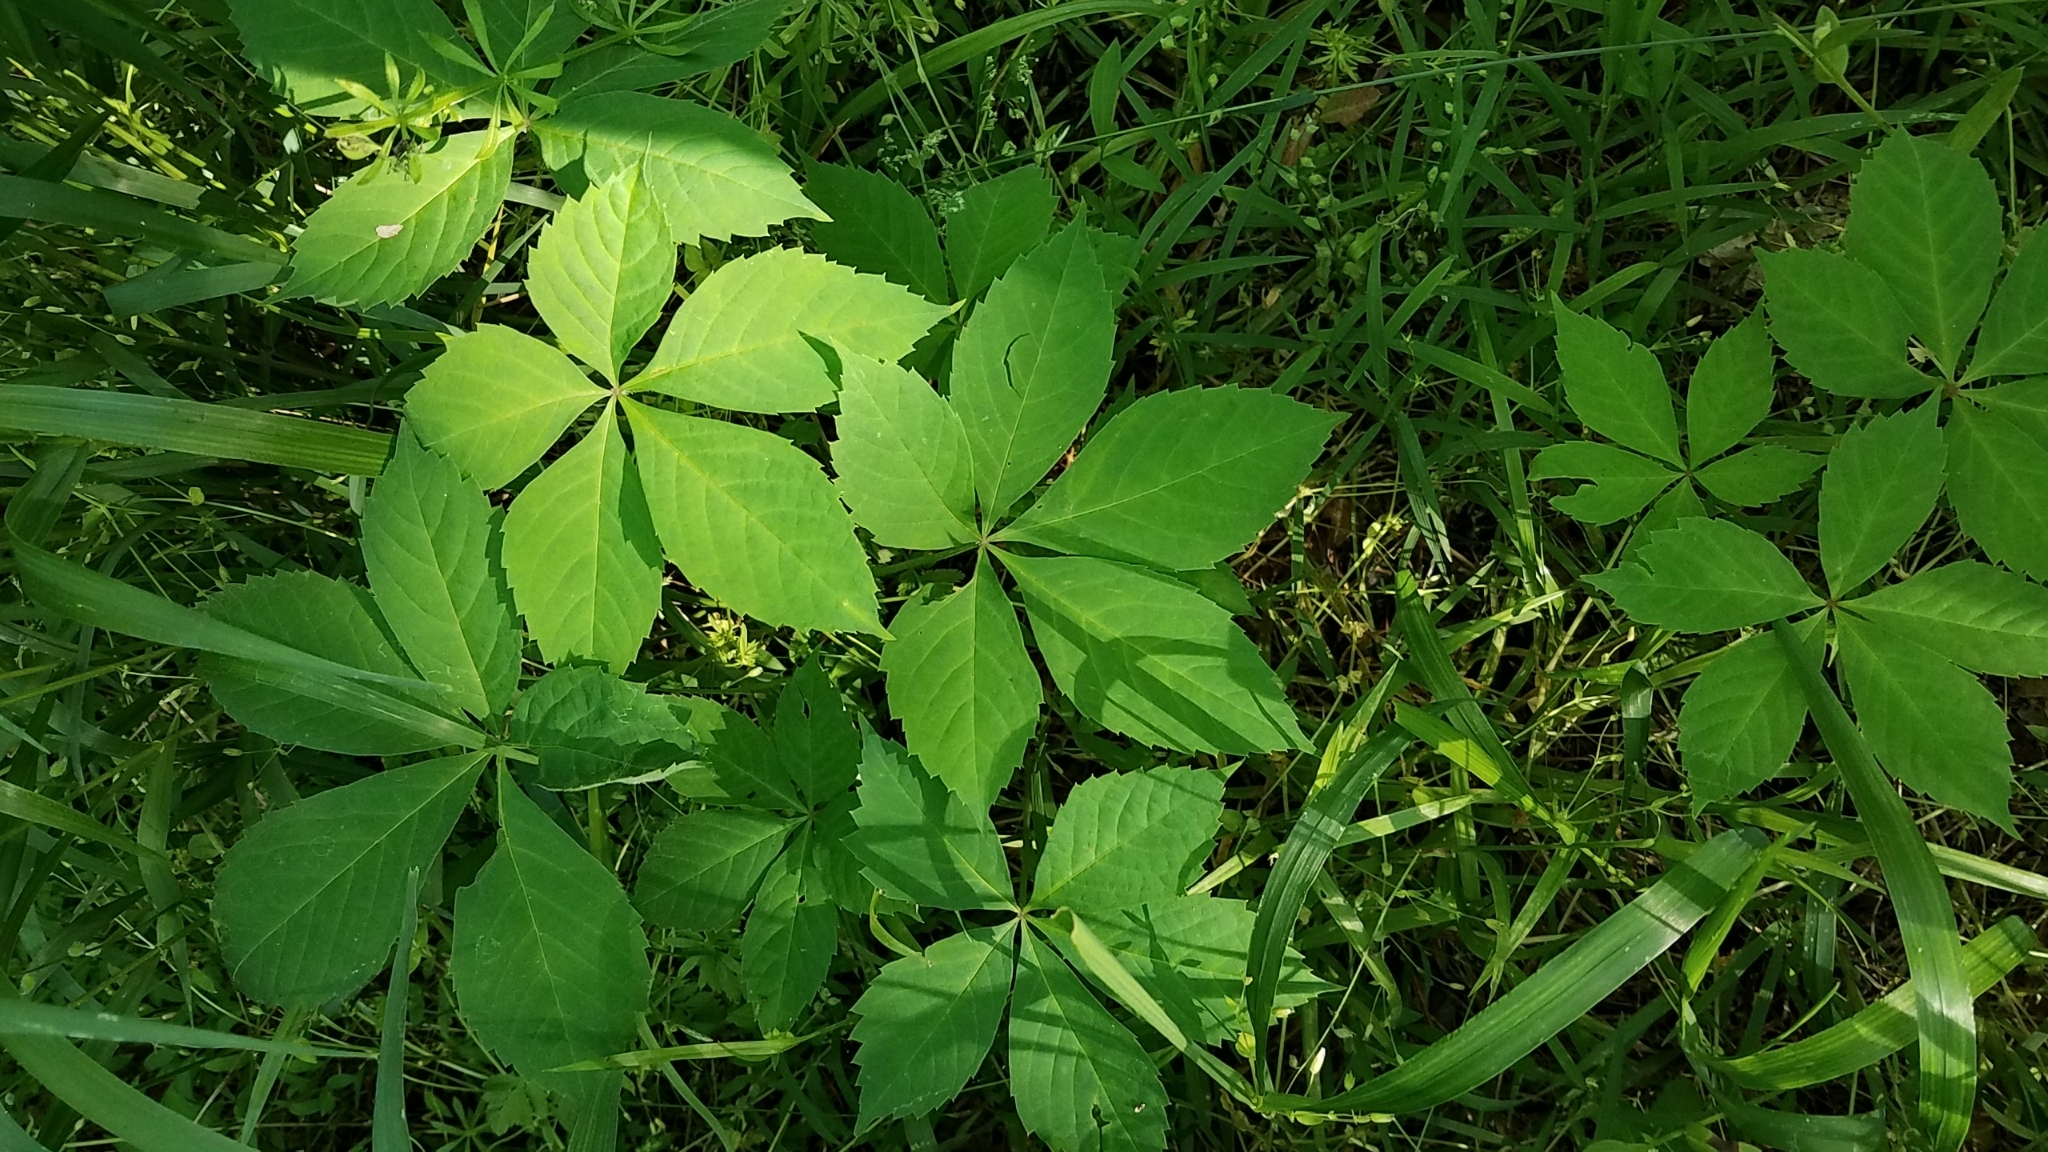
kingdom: Plantae
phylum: Tracheophyta
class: Magnoliopsida
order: Vitales
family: Vitaceae
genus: Parthenocissus
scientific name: Parthenocissus quinquefolia
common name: Virginia-creeper
